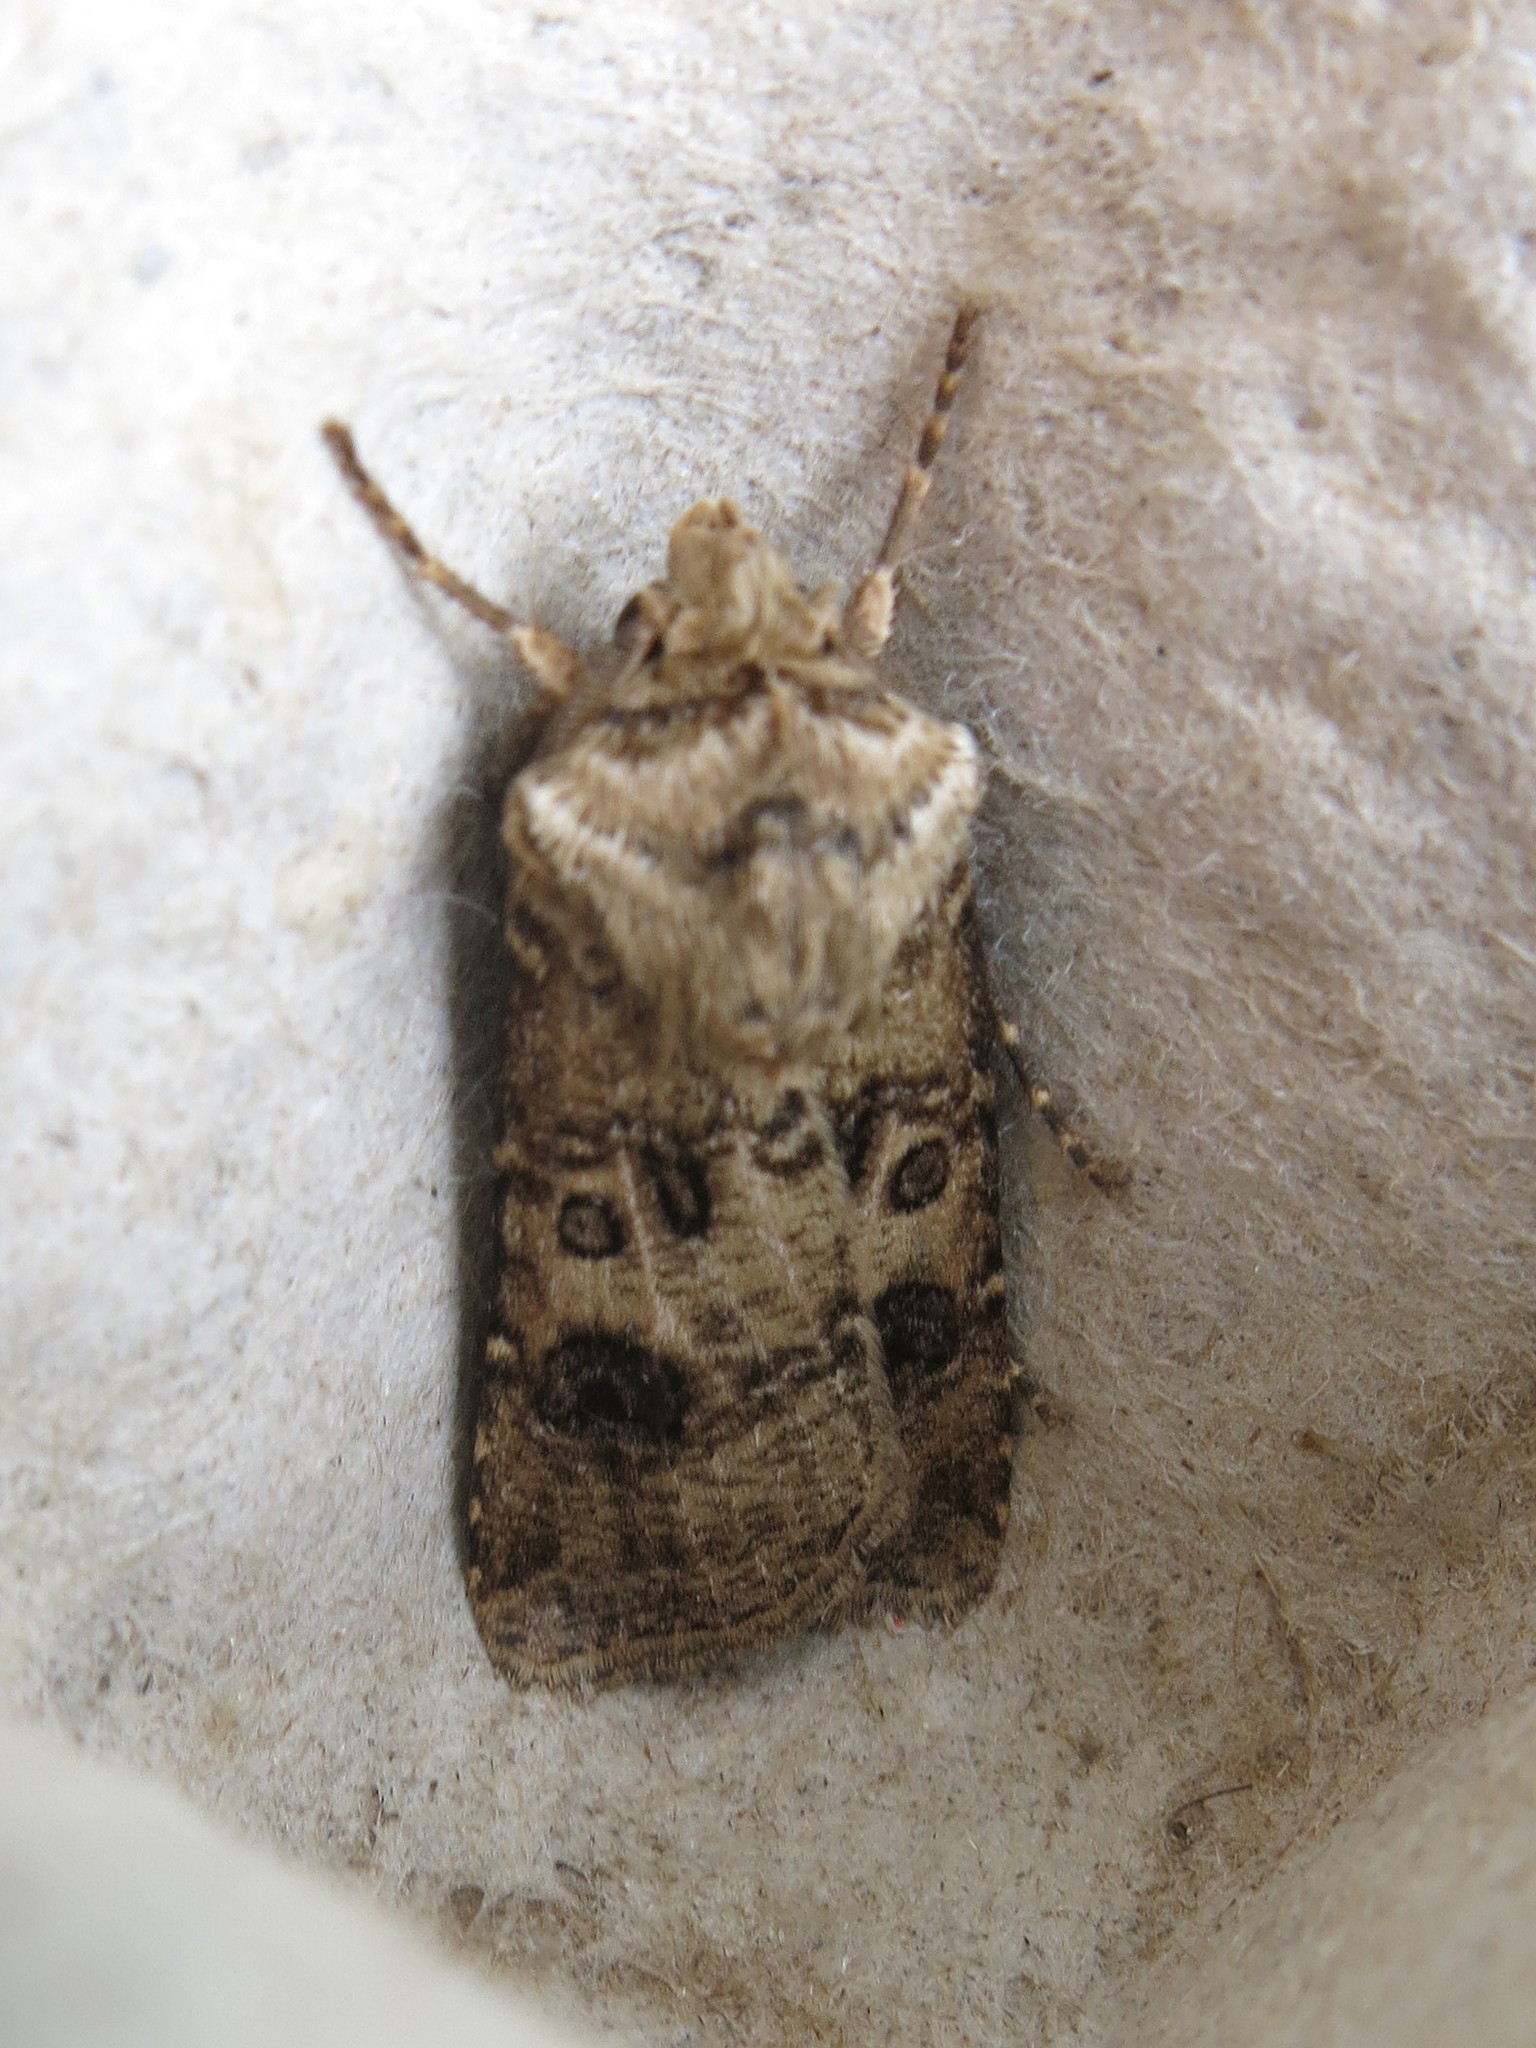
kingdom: Animalia
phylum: Arthropoda
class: Insecta
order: Lepidoptera
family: Noctuidae
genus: Agrotis
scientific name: Agrotis clavis
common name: Heart and club
